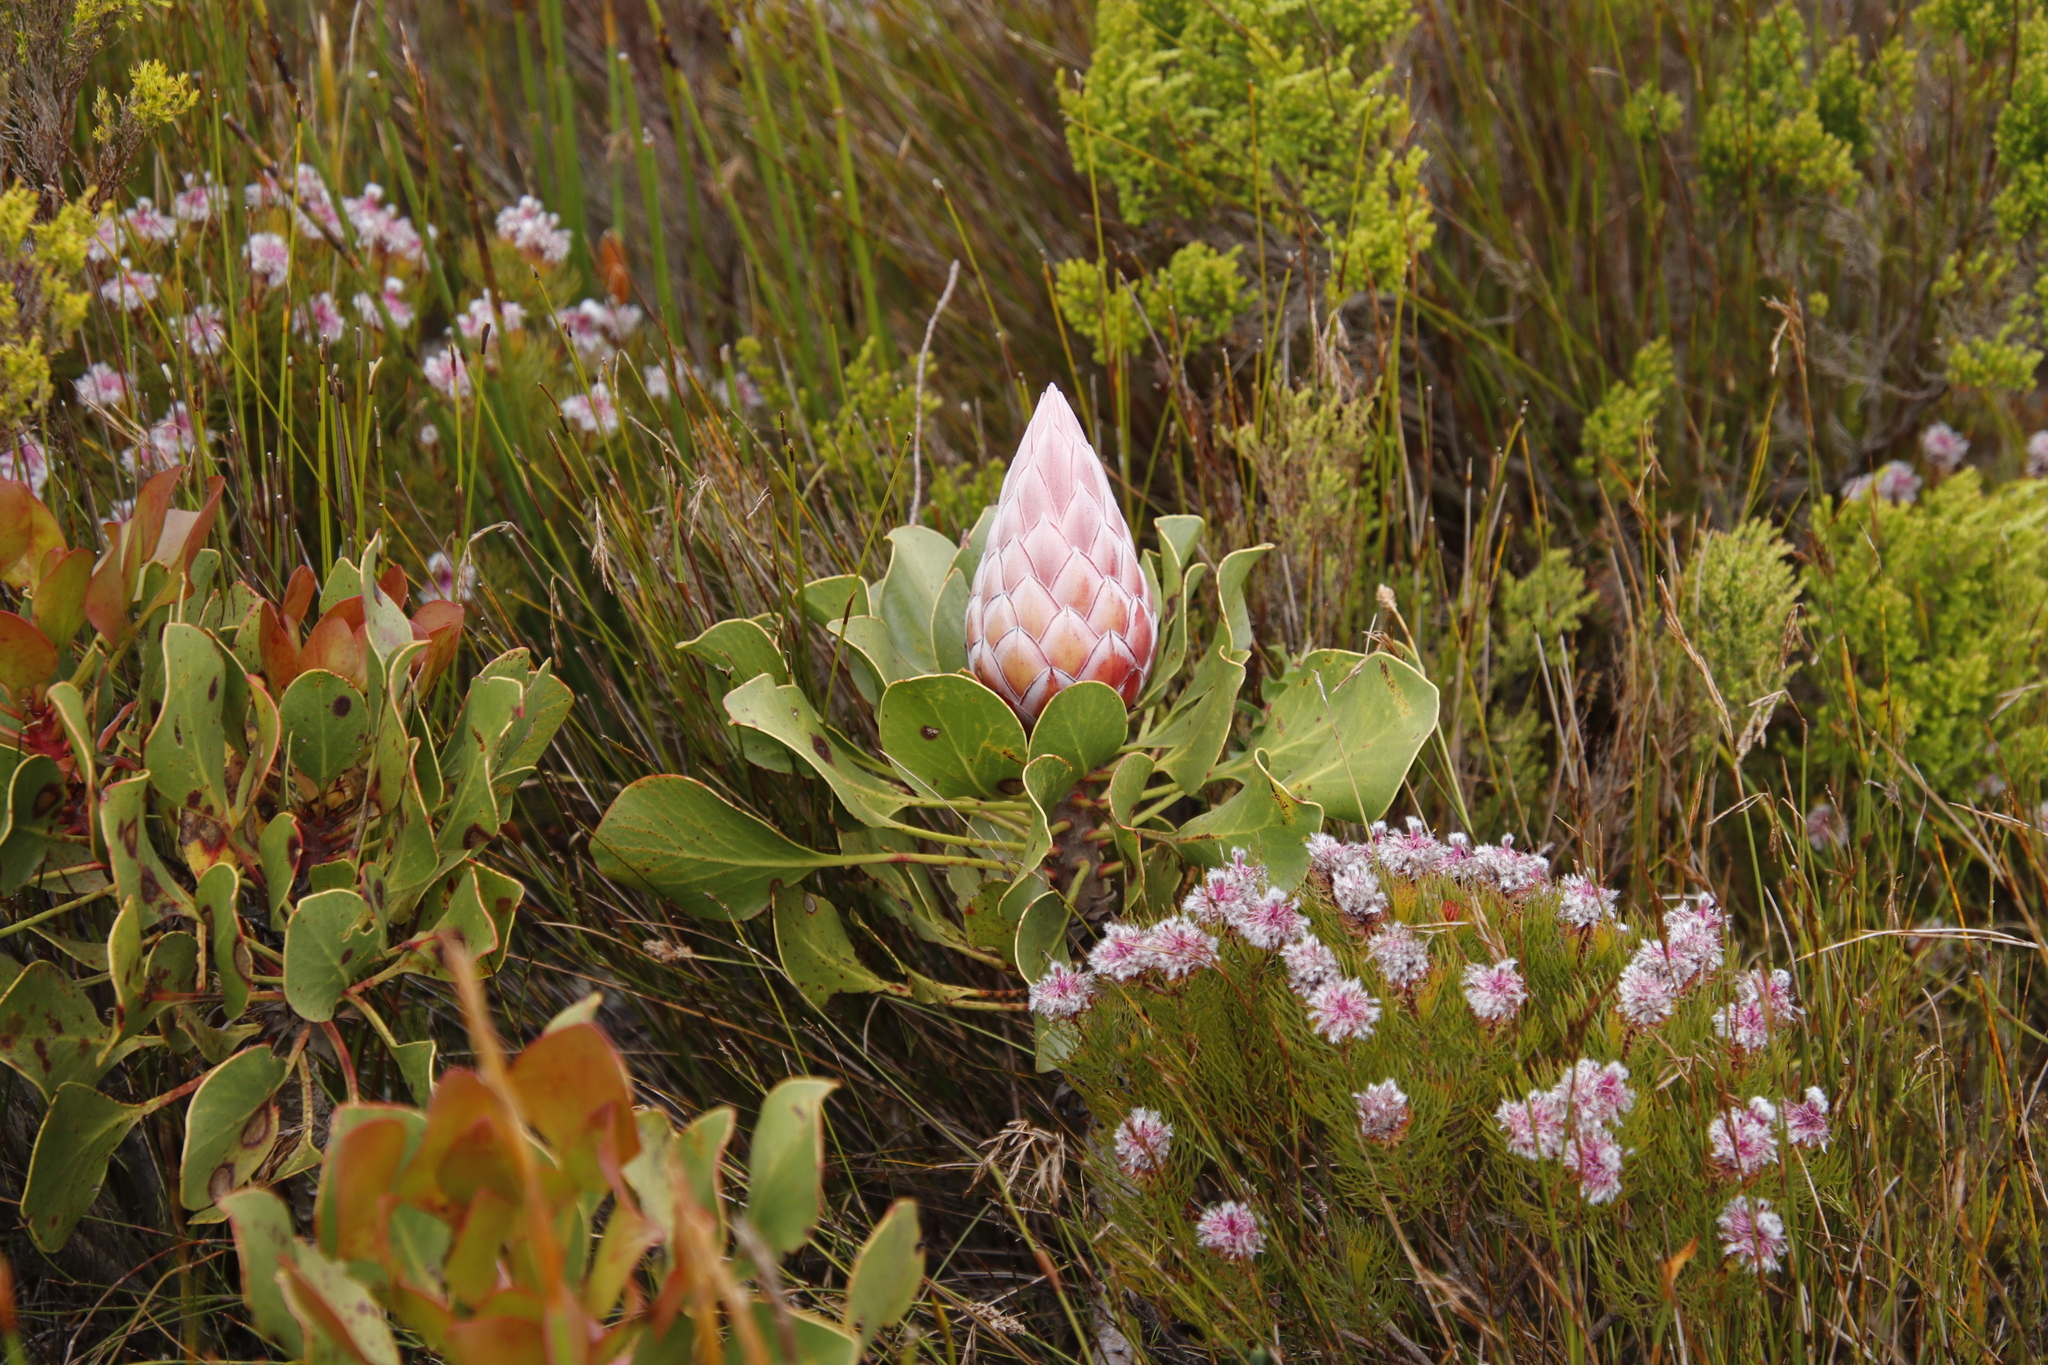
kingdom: Plantae
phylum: Tracheophyta
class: Magnoliopsida
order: Proteales
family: Proteaceae
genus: Protea
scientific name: Protea cynaroides
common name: King protea
